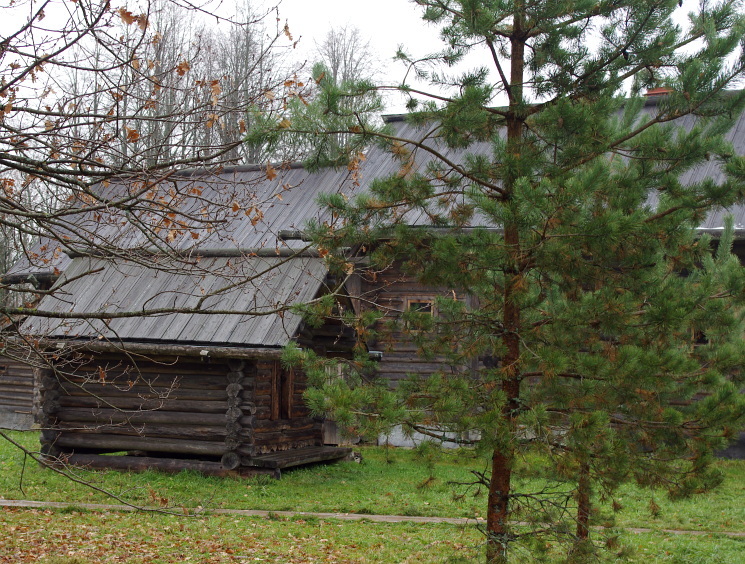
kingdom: Plantae
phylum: Tracheophyta
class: Pinopsida
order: Pinales
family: Pinaceae
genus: Pinus
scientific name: Pinus sylvestris
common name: Scots pine
